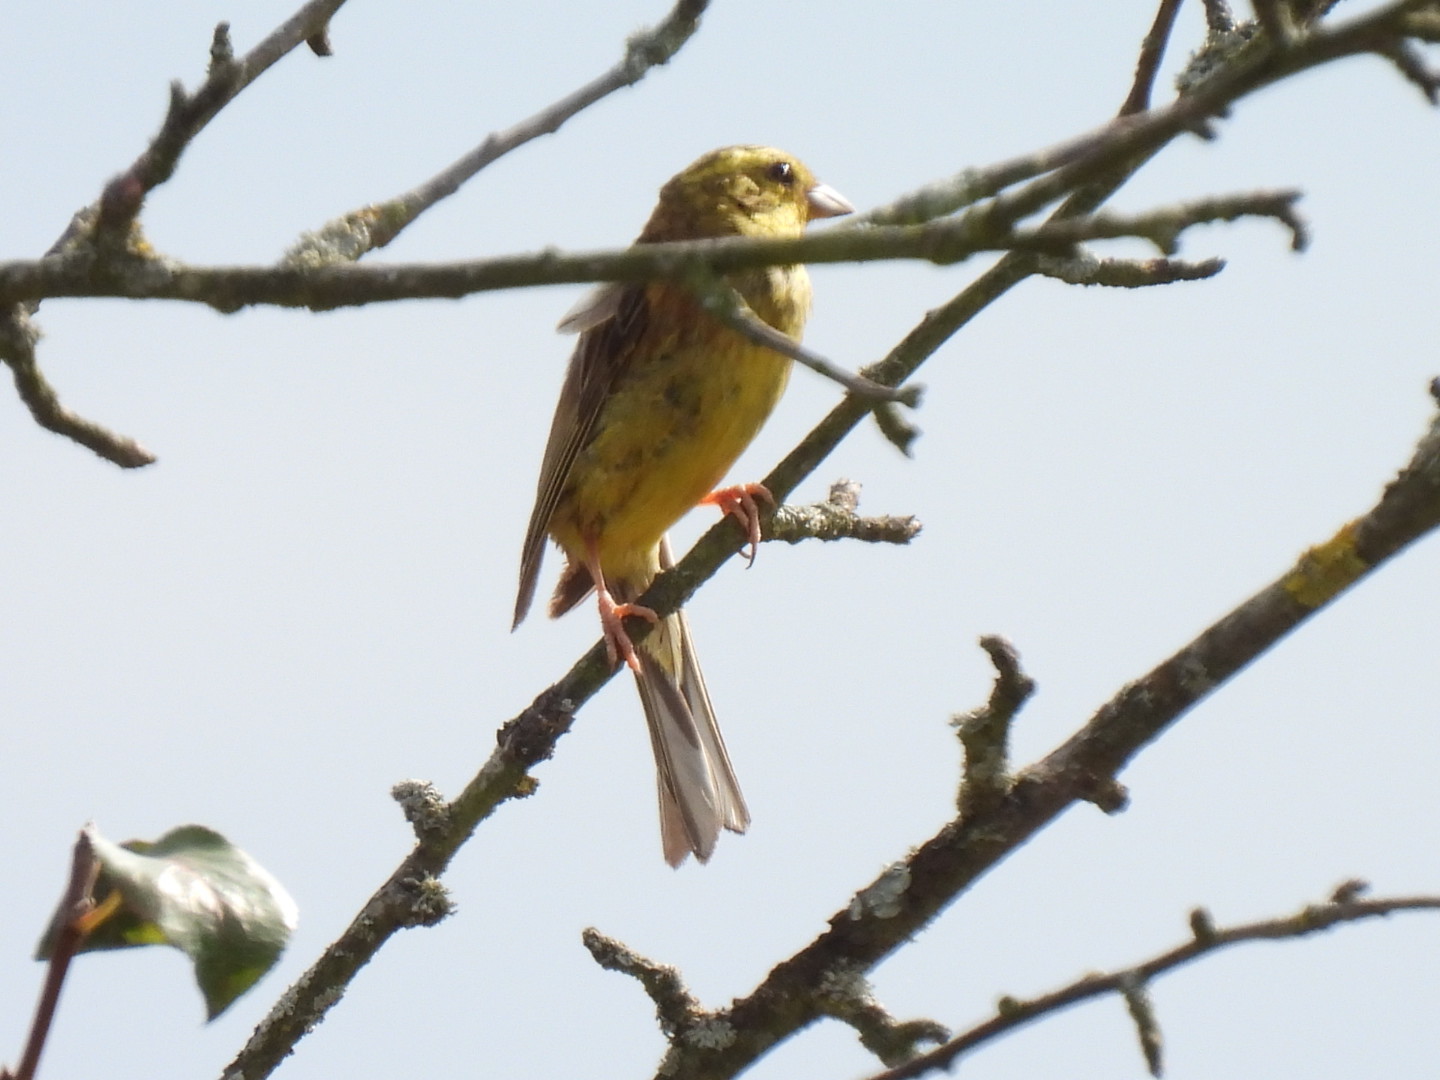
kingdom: Animalia
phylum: Chordata
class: Aves
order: Passeriformes
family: Emberizidae
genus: Emberiza
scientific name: Emberiza citrinella
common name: Yellowhammer
